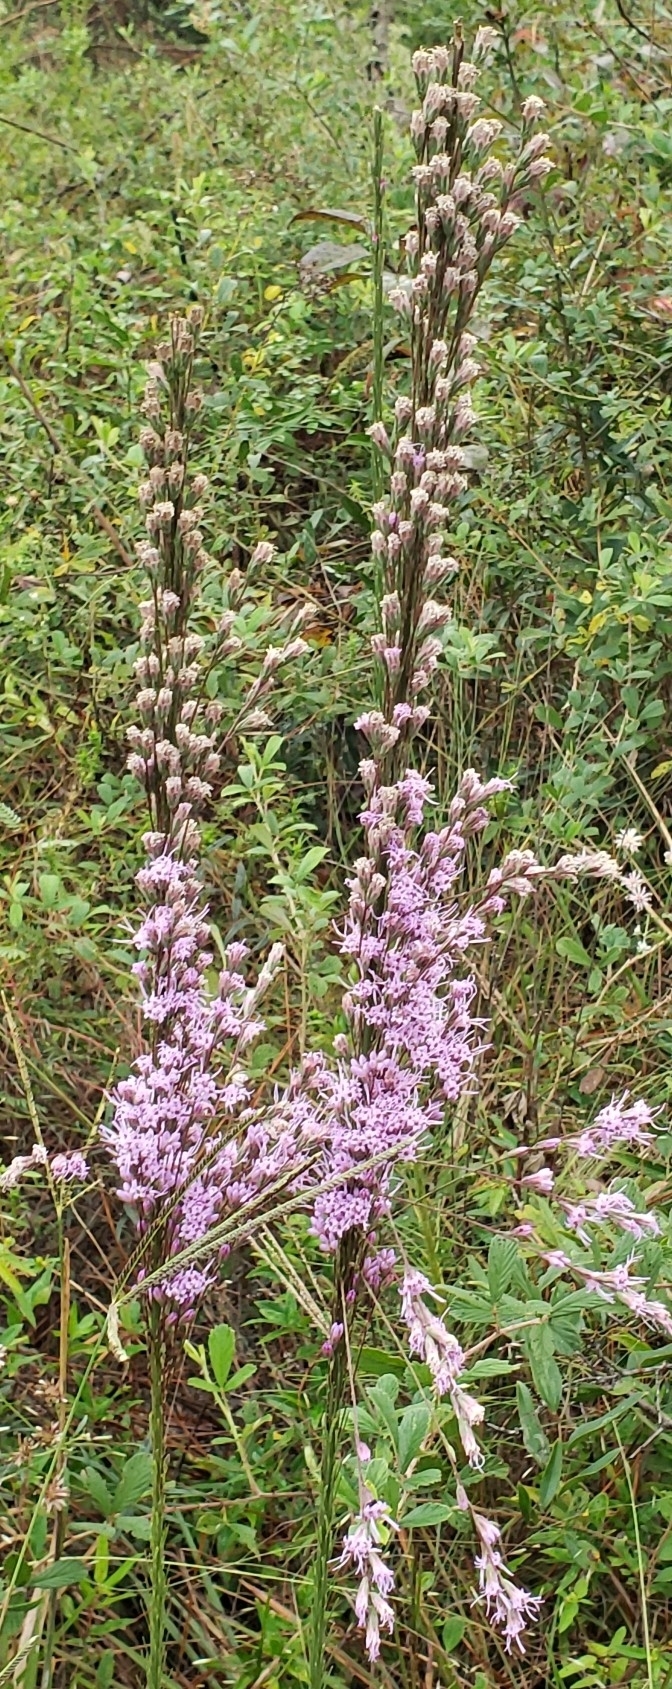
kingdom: Plantae
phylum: Tracheophyta
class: Magnoliopsida
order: Asterales
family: Asteraceae
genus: Liatris
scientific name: Liatris tenuifolia
